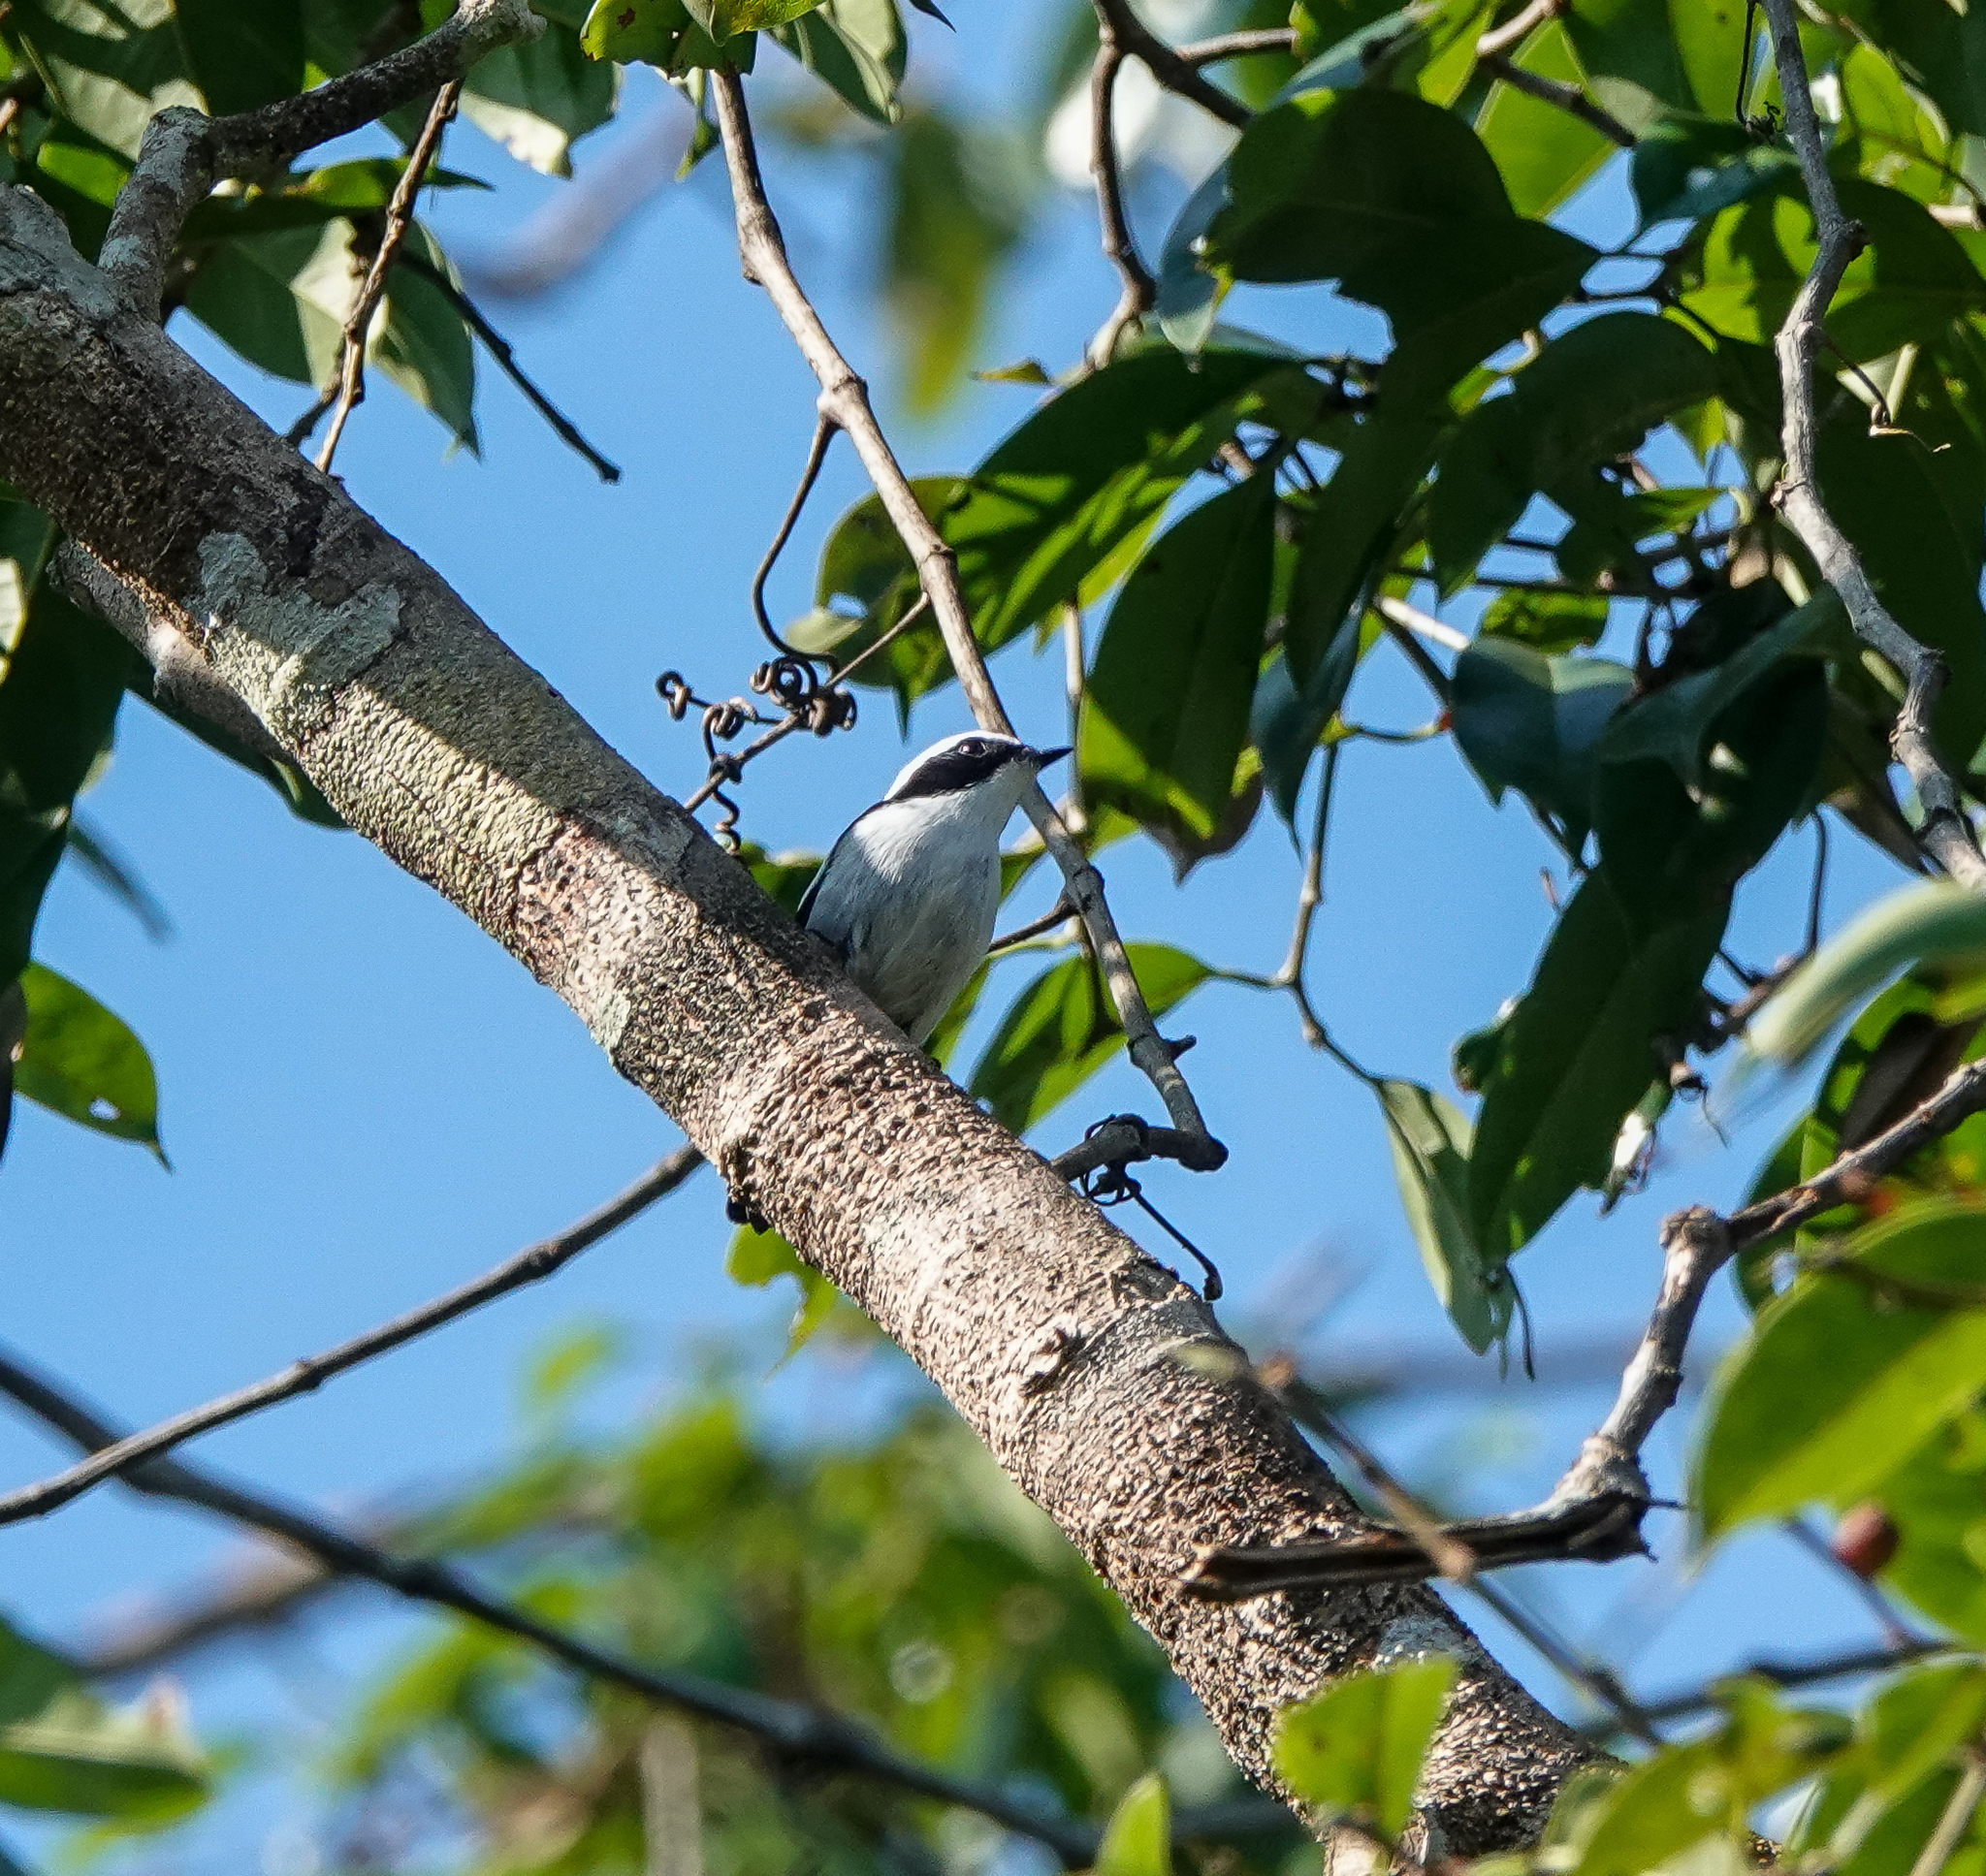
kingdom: Animalia
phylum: Chordata
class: Aves
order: Passeriformes
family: Muscicapidae
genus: Ficedula
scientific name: Ficedula westermanni
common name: Little pied flycatcher
